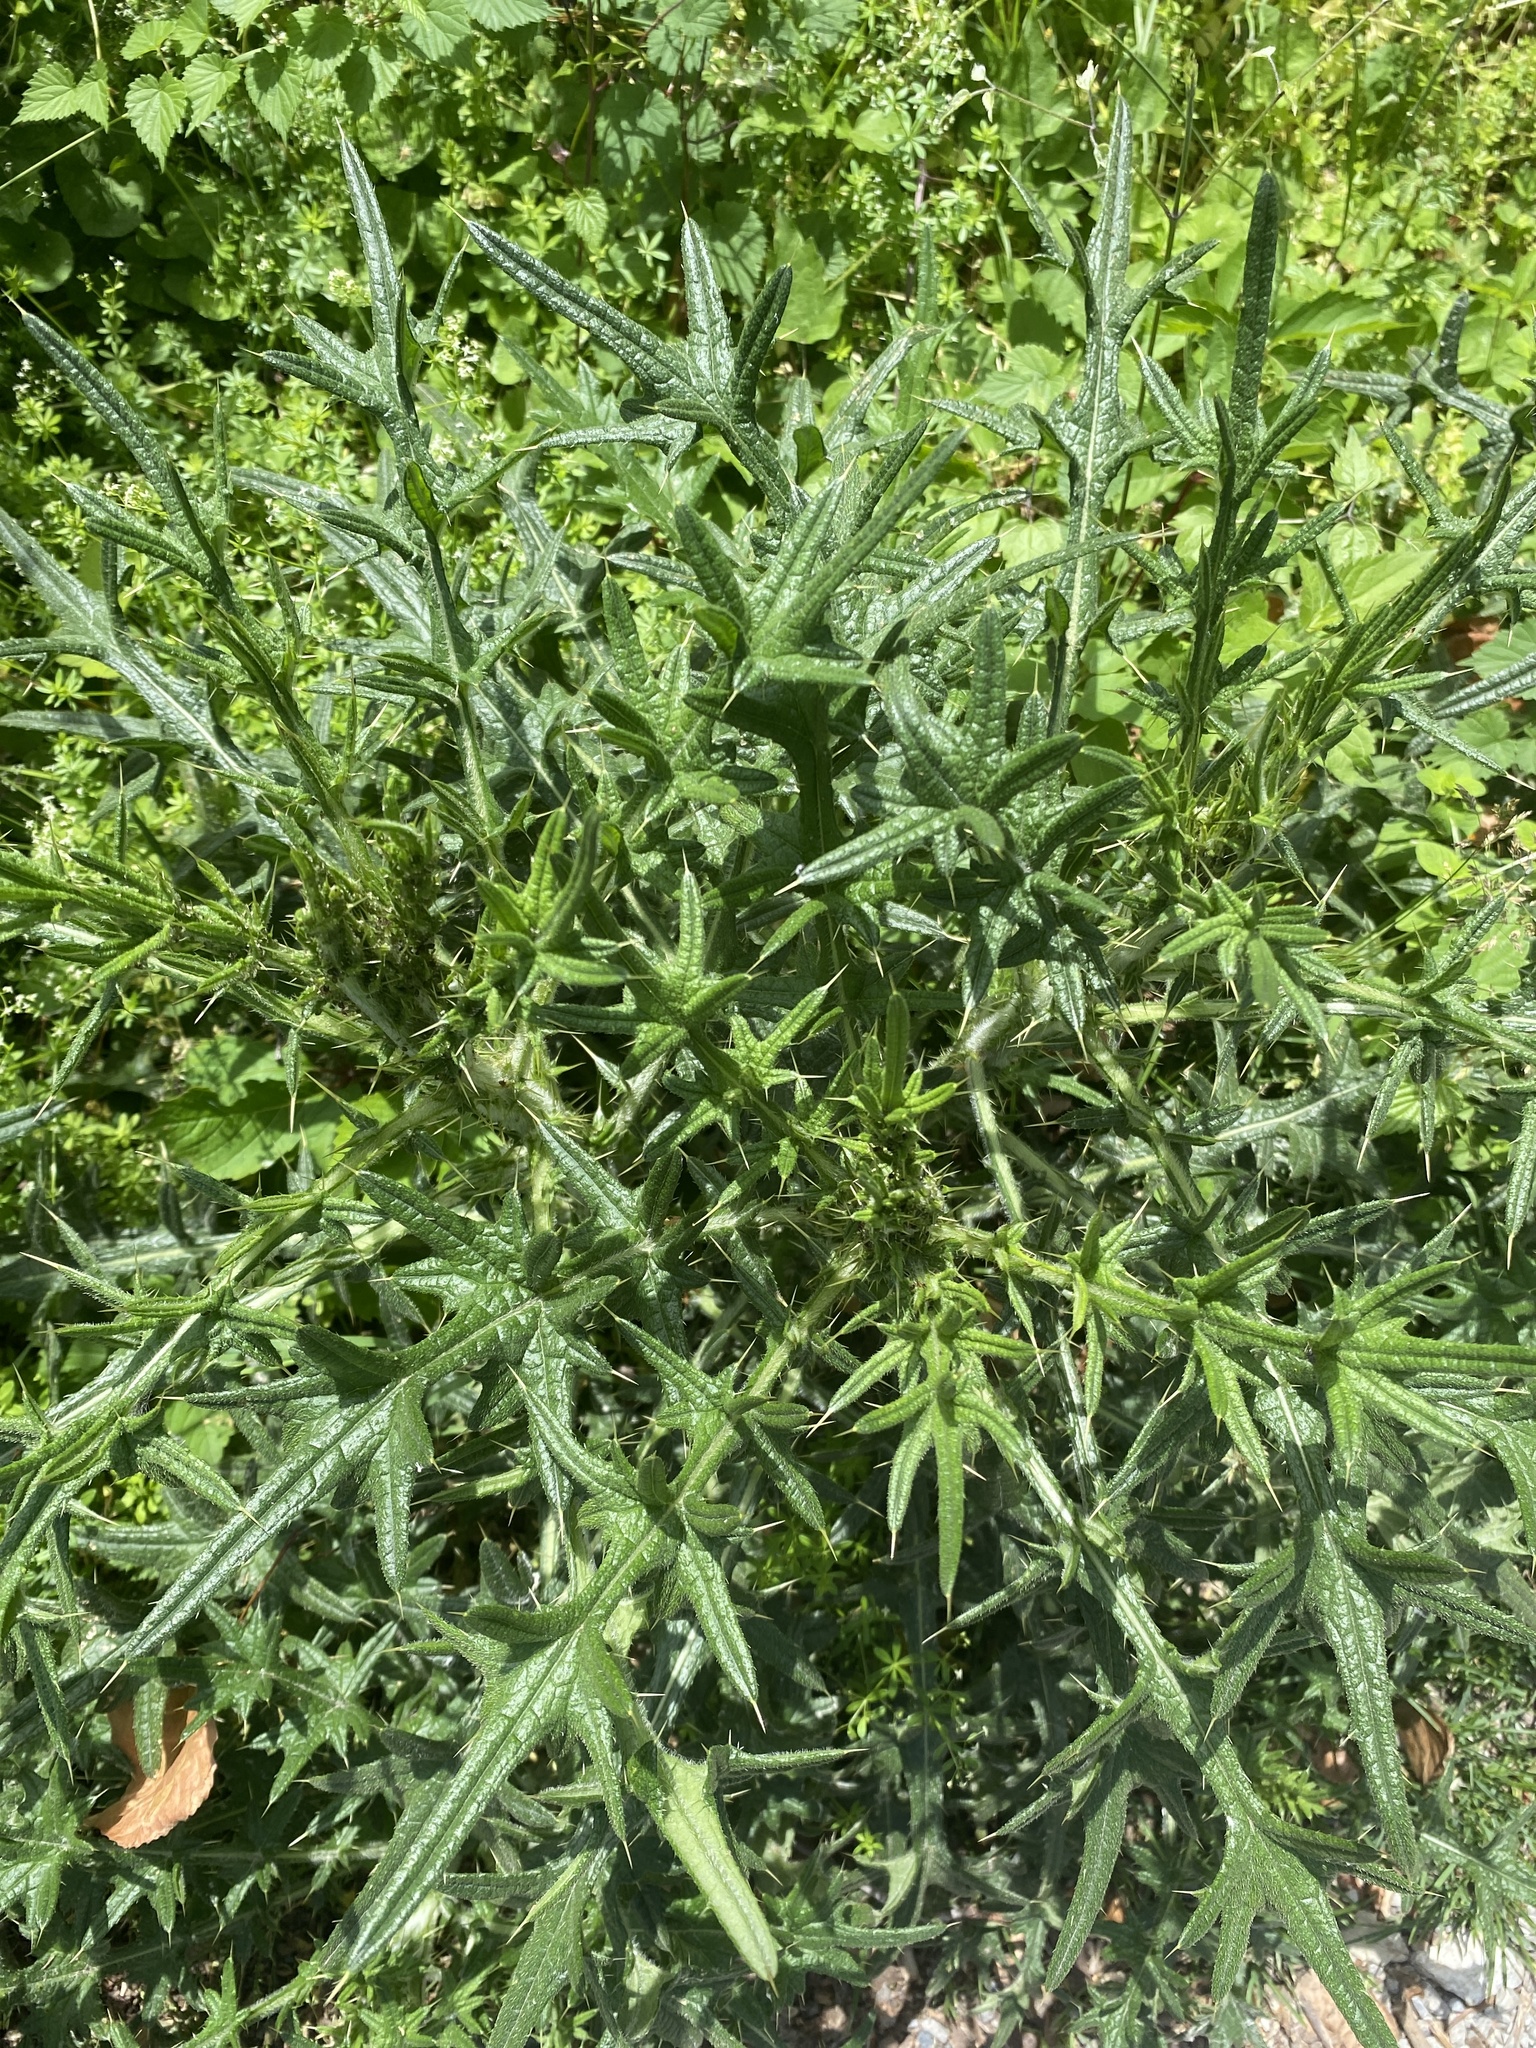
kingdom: Plantae
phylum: Tracheophyta
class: Magnoliopsida
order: Asterales
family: Asteraceae
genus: Cirsium
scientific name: Cirsium vulgare
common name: Bull thistle
